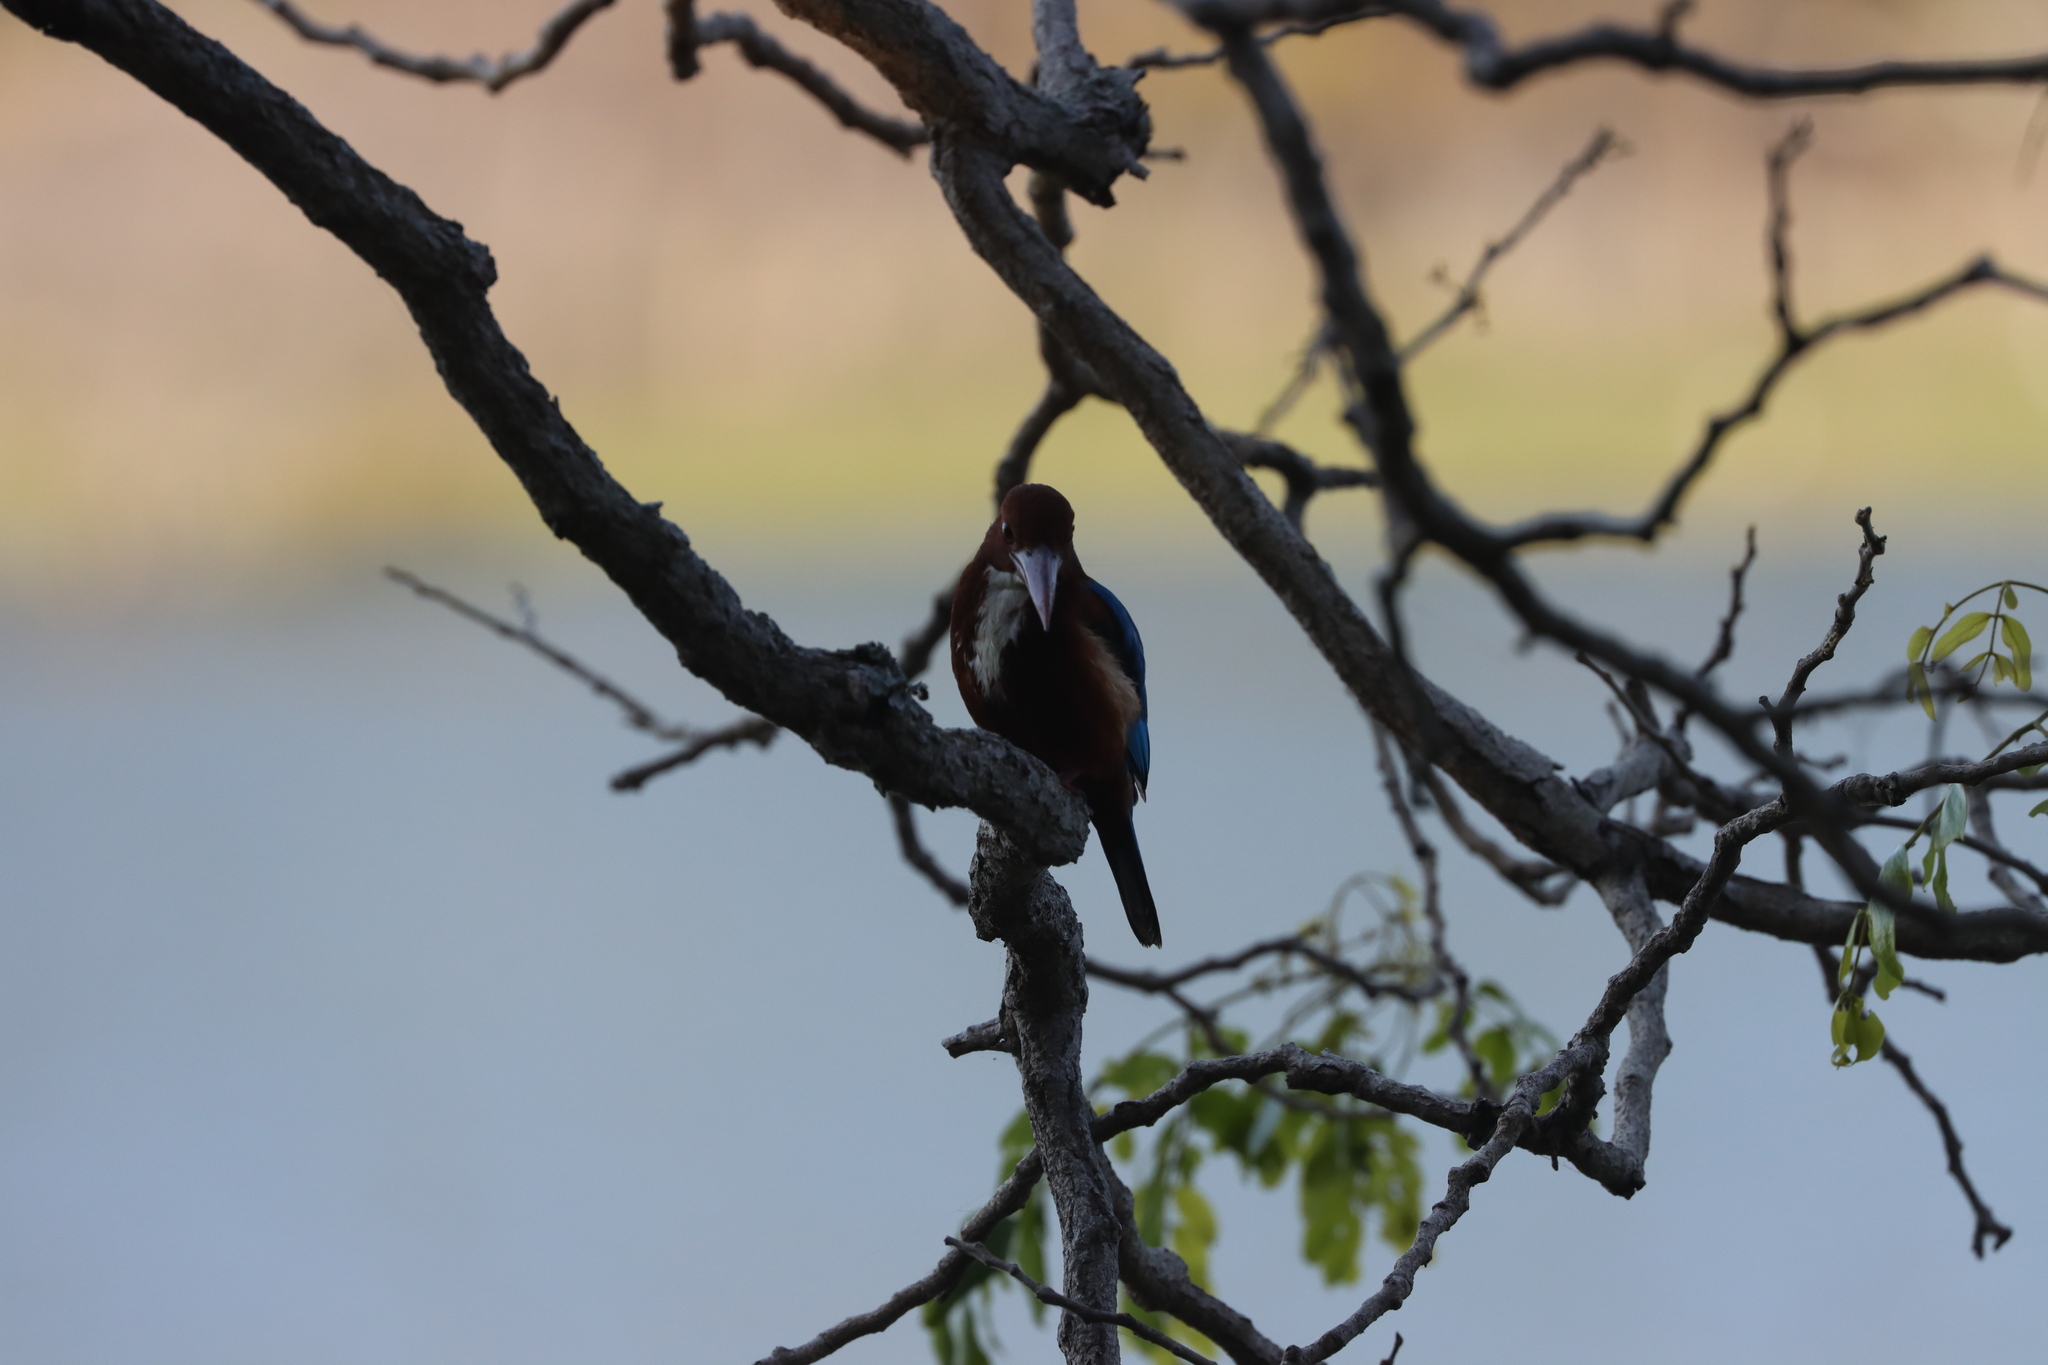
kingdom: Animalia
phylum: Chordata
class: Aves
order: Coraciiformes
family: Alcedinidae
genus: Halcyon
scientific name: Halcyon smyrnensis
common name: White-throated kingfisher
